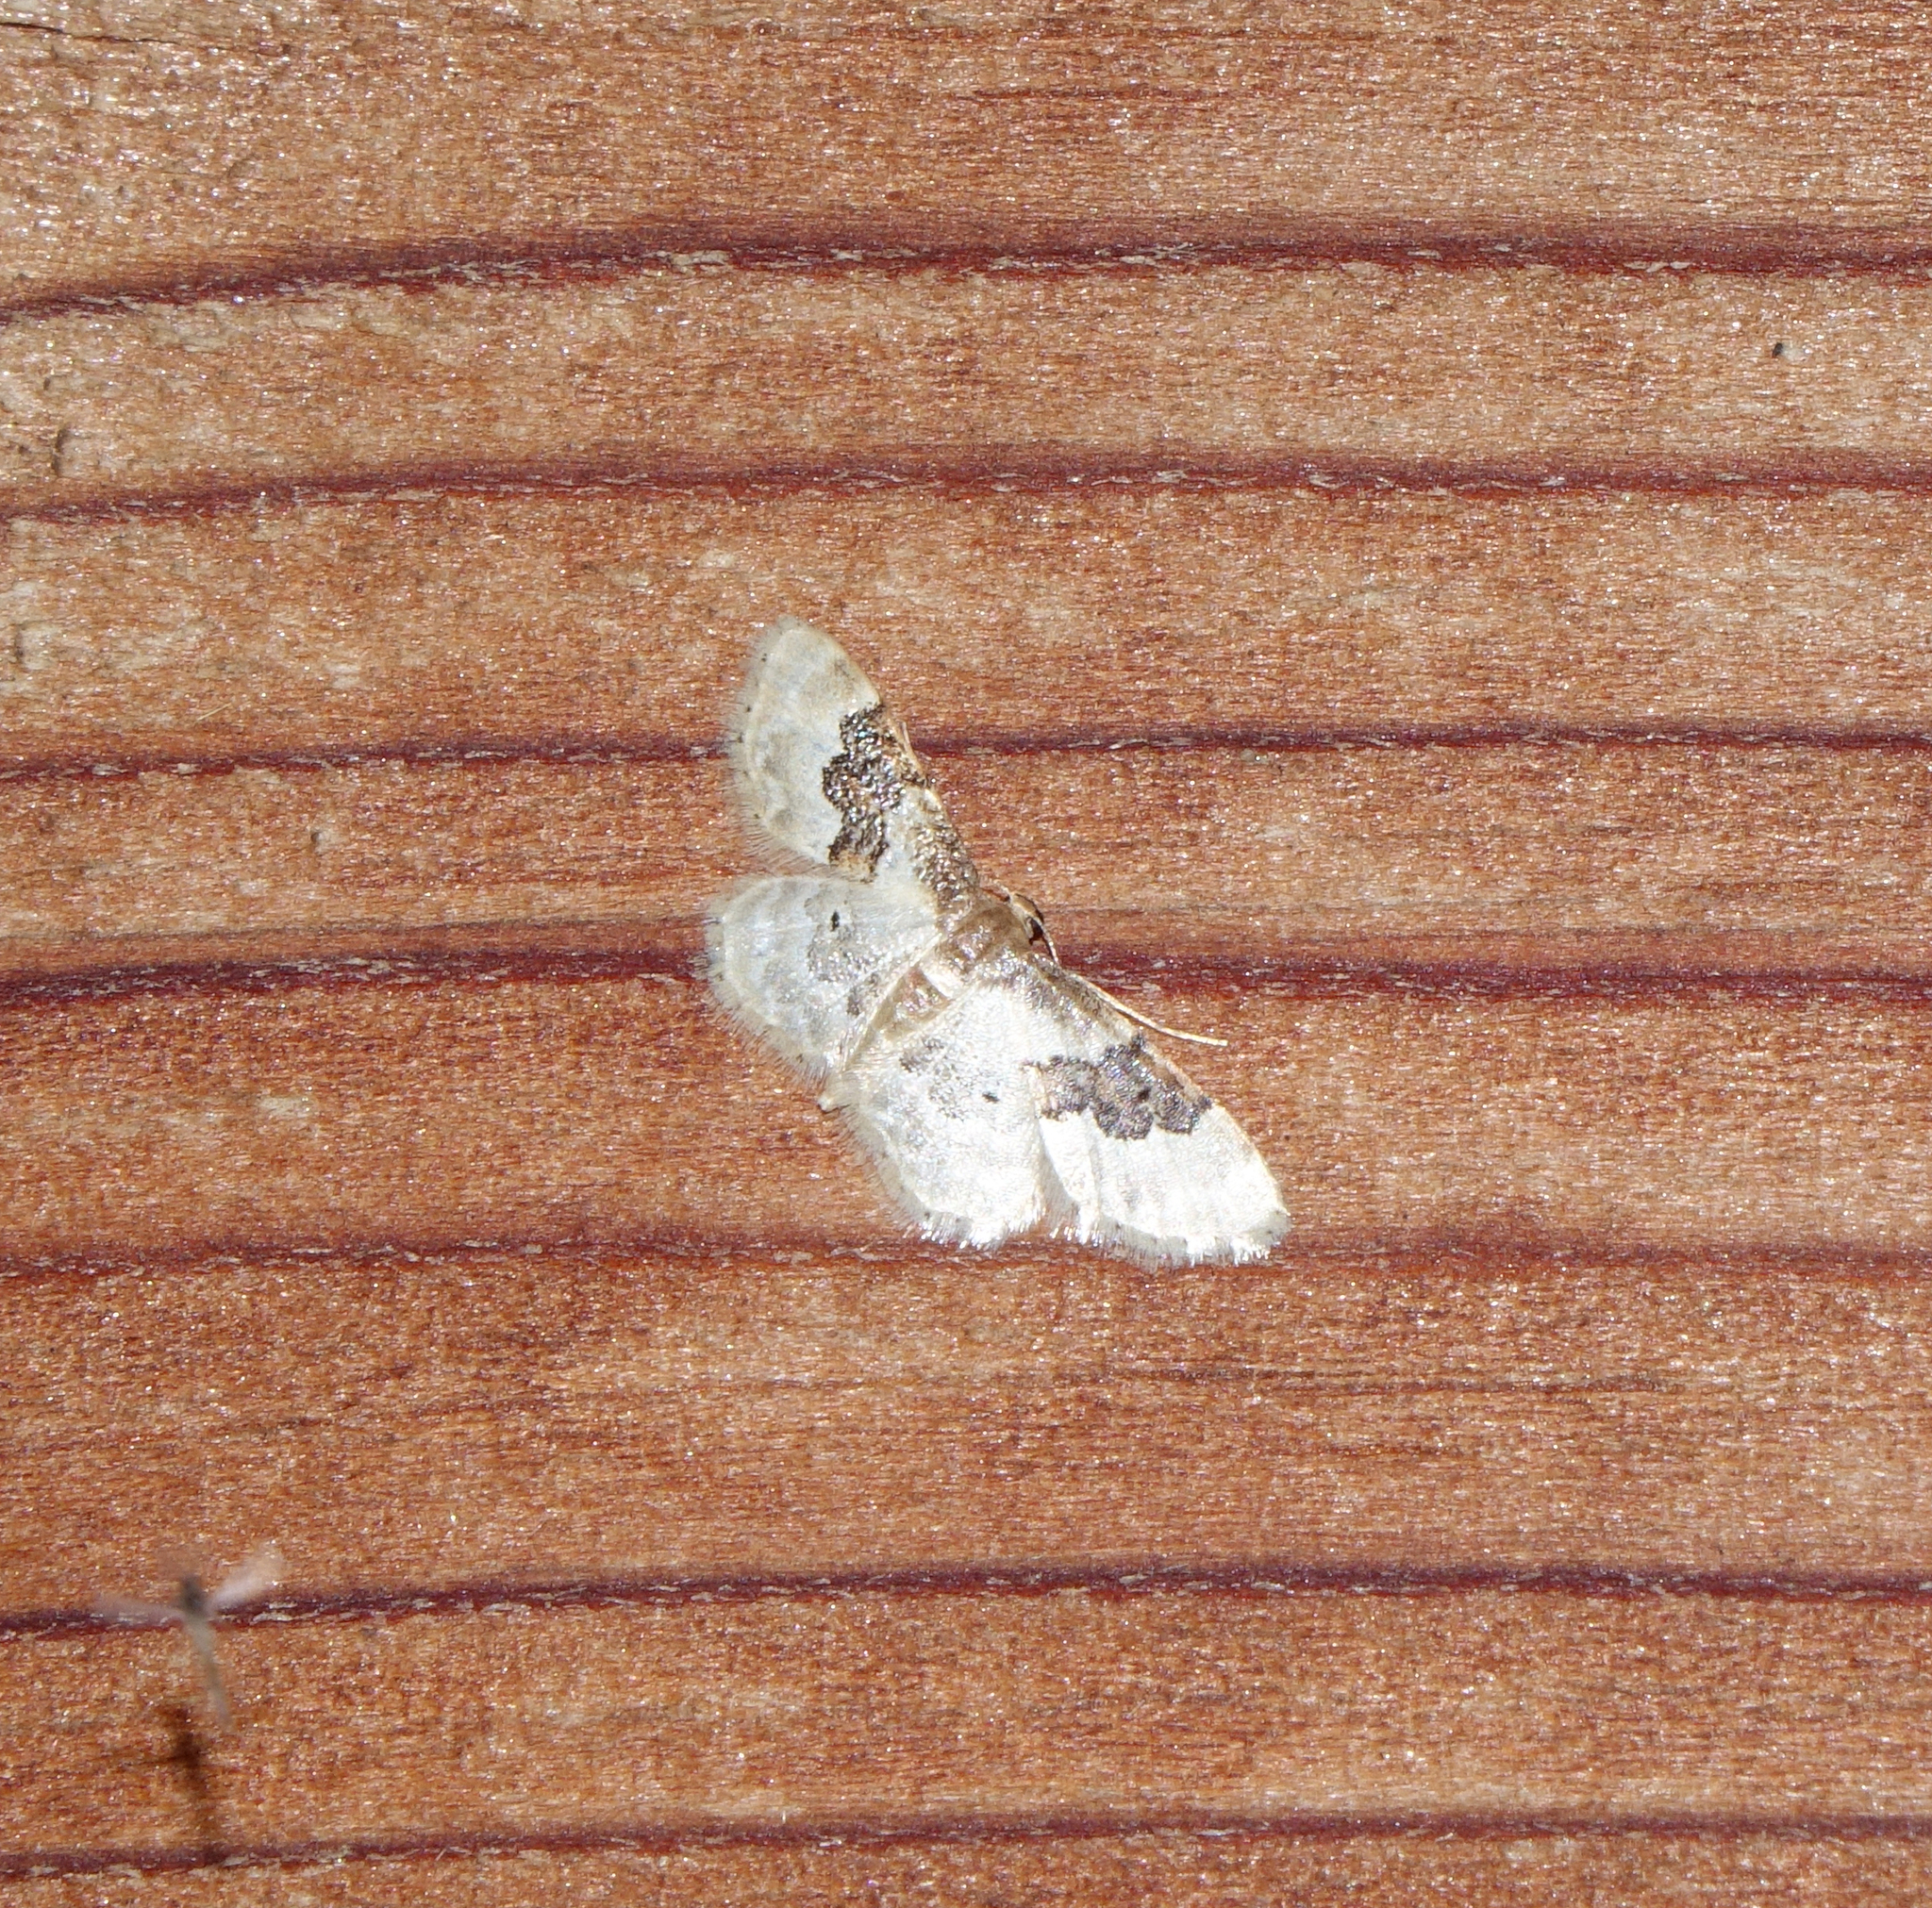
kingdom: Animalia
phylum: Arthropoda
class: Insecta
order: Lepidoptera
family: Geometridae
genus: Idaea
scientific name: Idaea rusticata
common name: Least carpet
